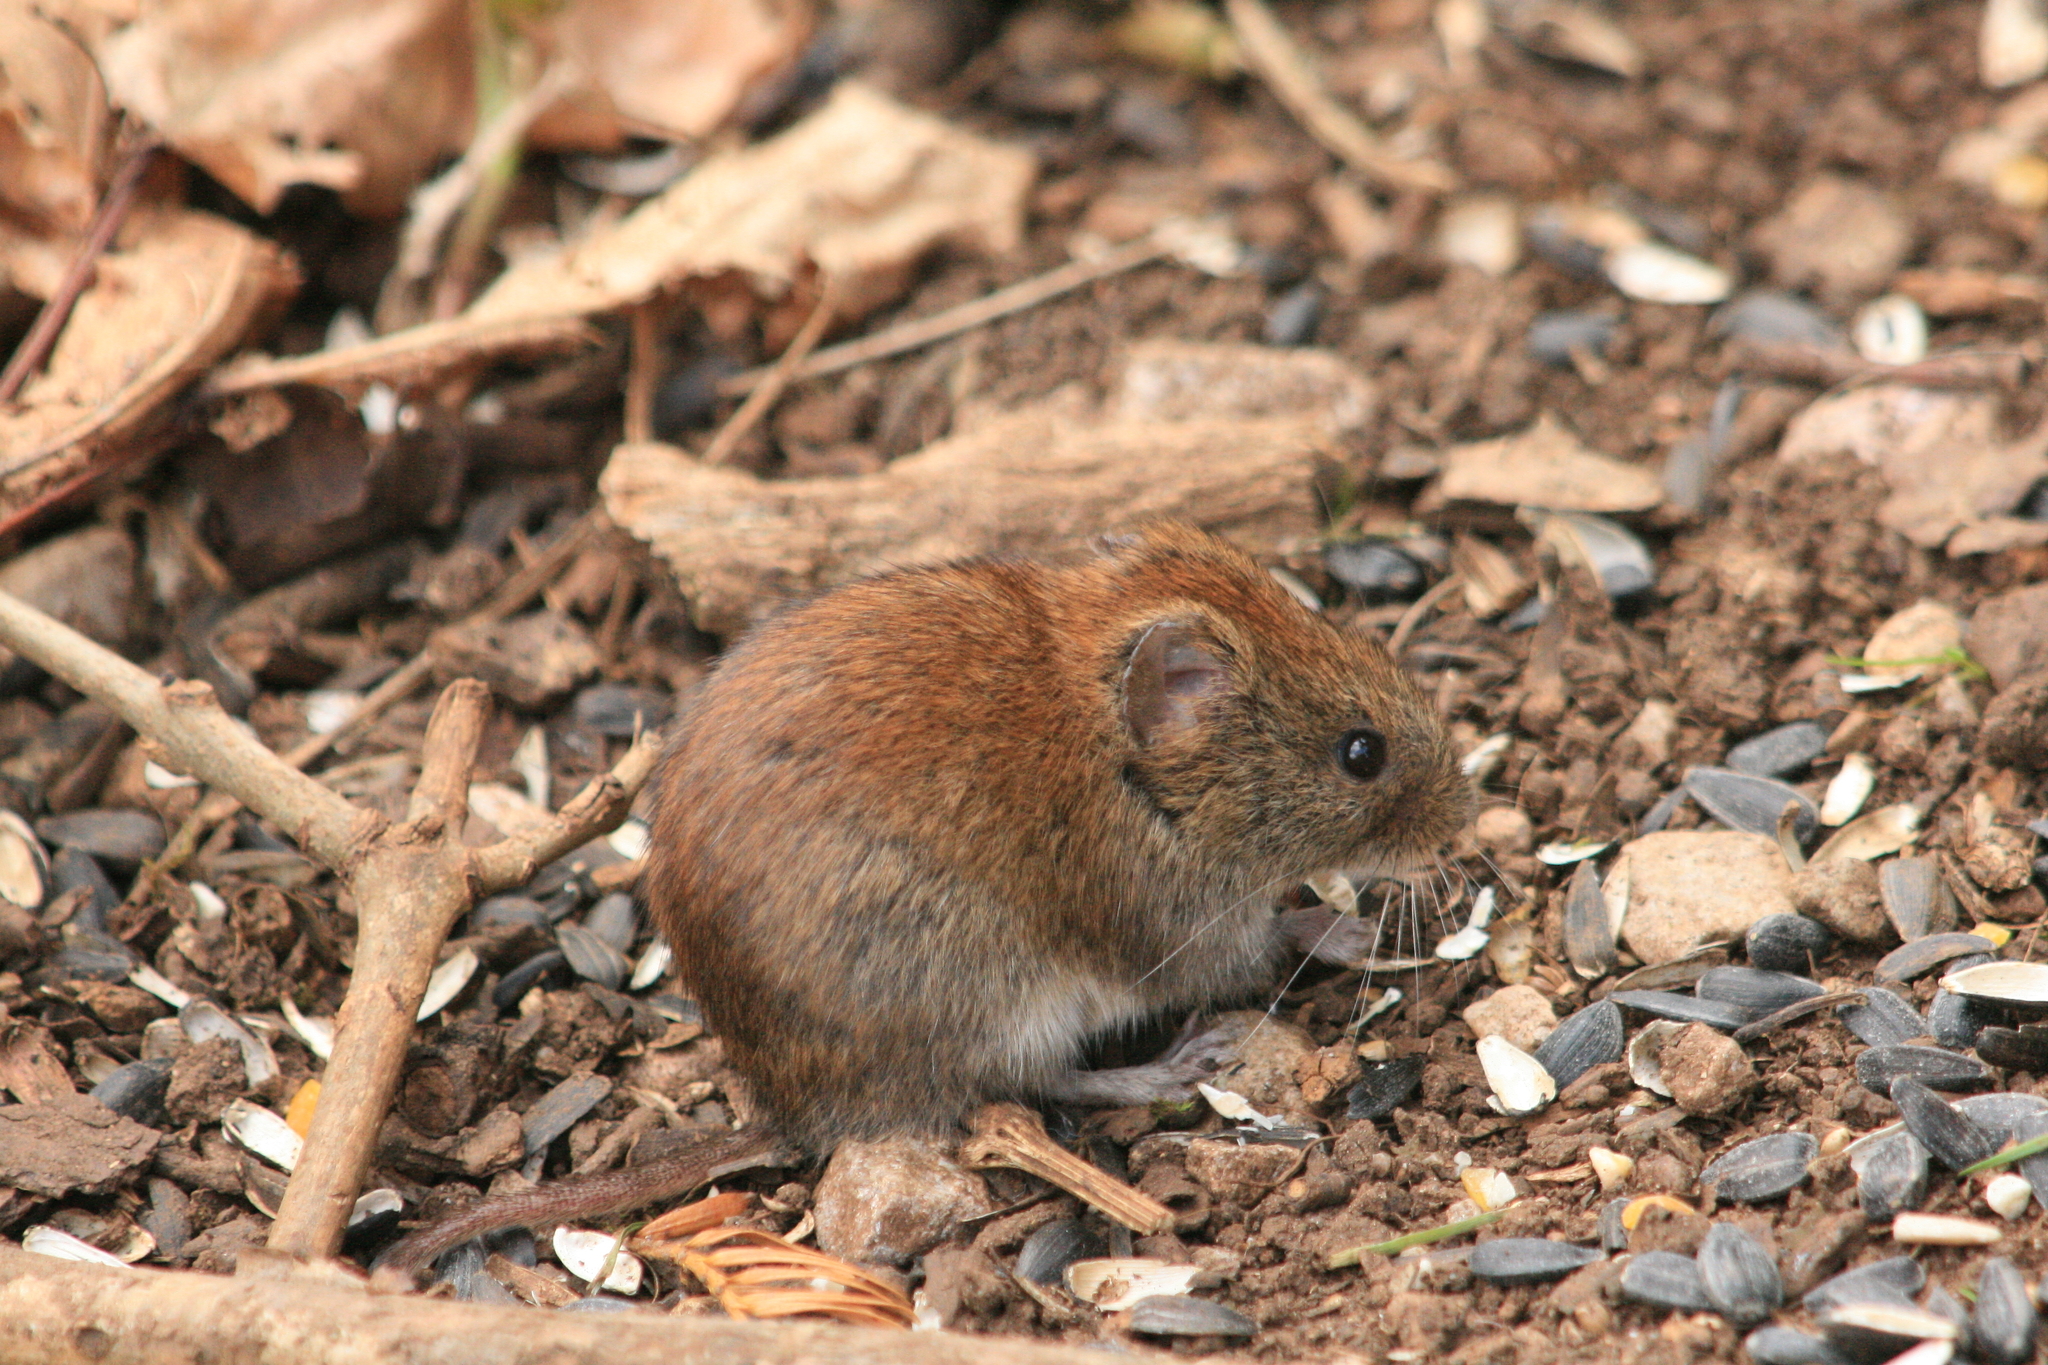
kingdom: Animalia
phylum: Chordata
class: Mammalia
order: Rodentia
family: Cricetidae
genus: Myodes
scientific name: Myodes glareolus
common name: Bank vole
